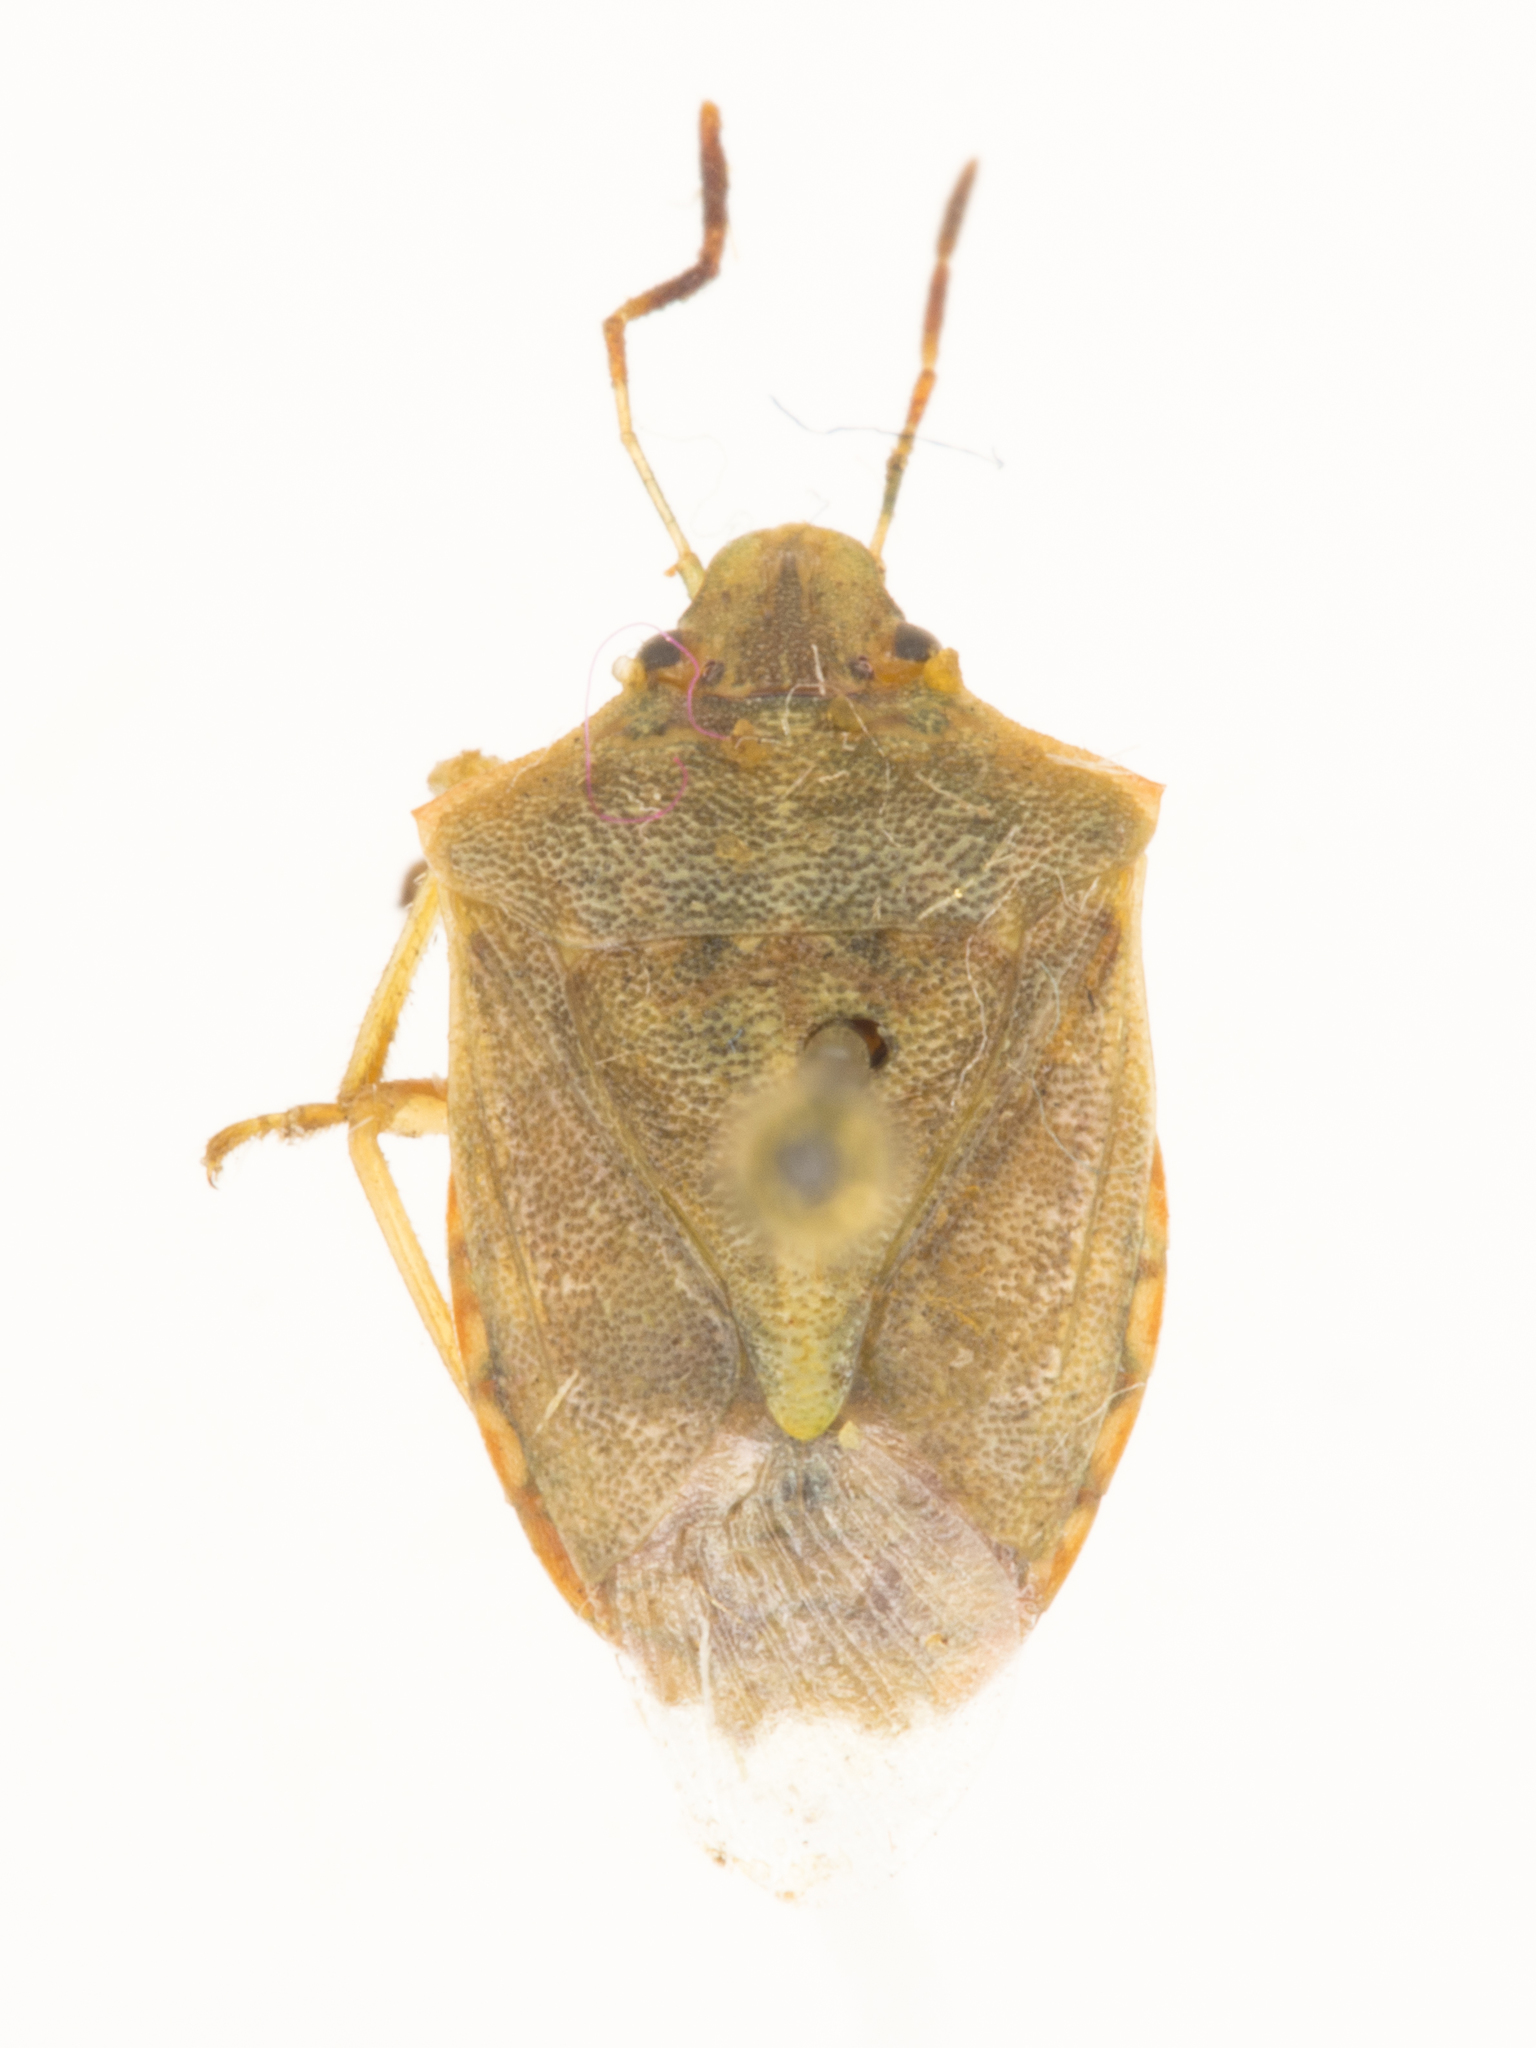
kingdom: Animalia
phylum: Arthropoda
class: Insecta
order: Hemiptera
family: Pentatomidae
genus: Thyanta
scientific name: Thyanta accerra
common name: Stink bug
